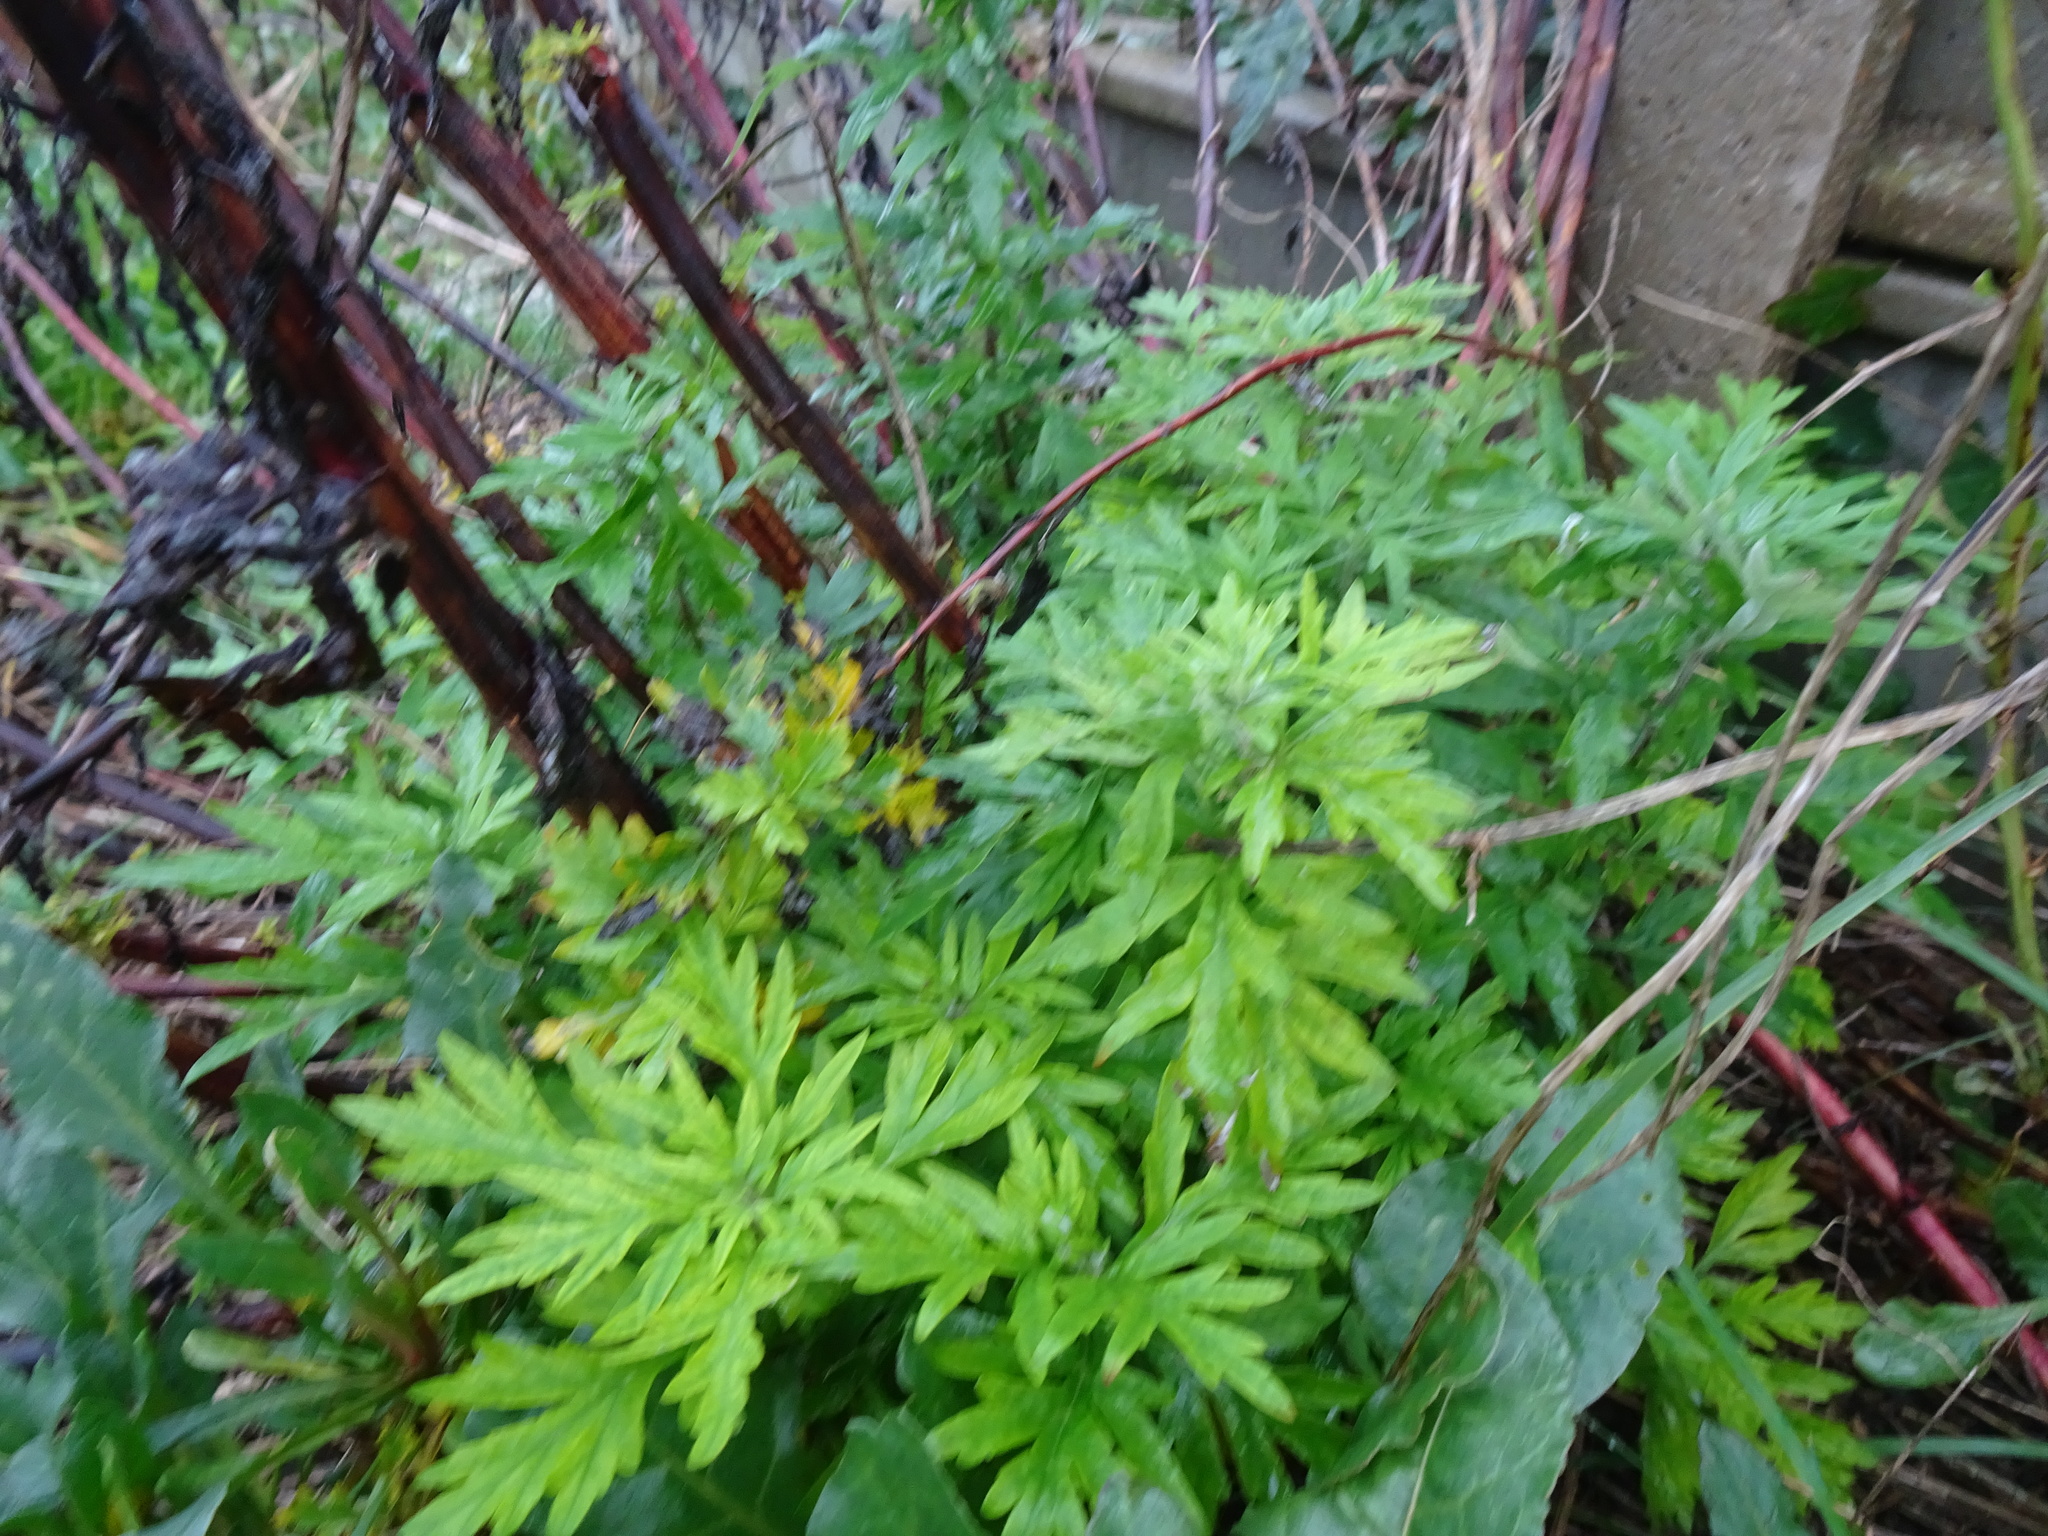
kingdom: Plantae
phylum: Tracheophyta
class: Magnoliopsida
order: Asterales
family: Asteraceae
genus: Artemisia
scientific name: Artemisia vulgaris
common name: Mugwort
